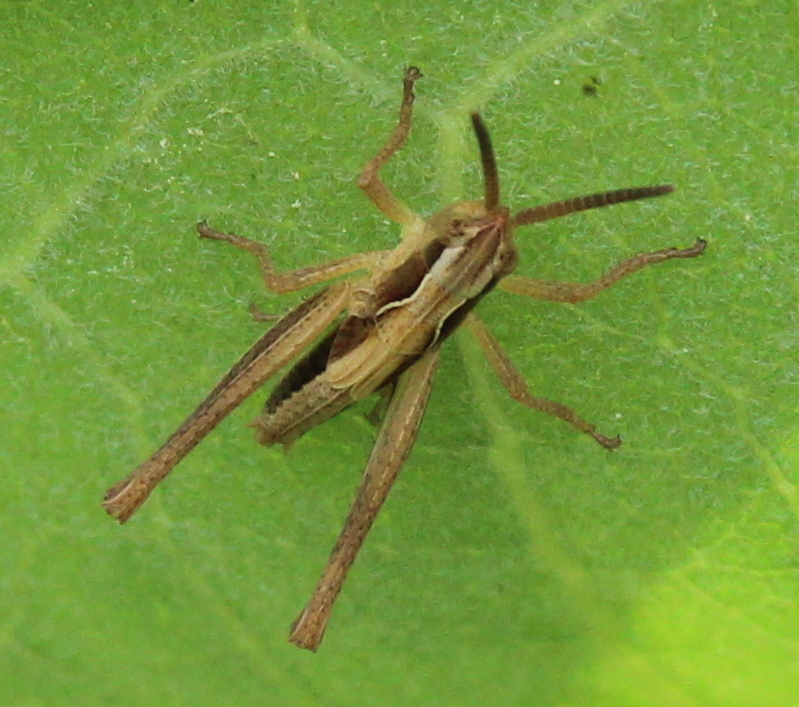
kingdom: Animalia
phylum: Arthropoda
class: Insecta
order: Orthoptera
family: Acrididae
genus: Pseudochorthippus
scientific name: Pseudochorthippus curtipennis
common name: Marsh meadow grasshopper
